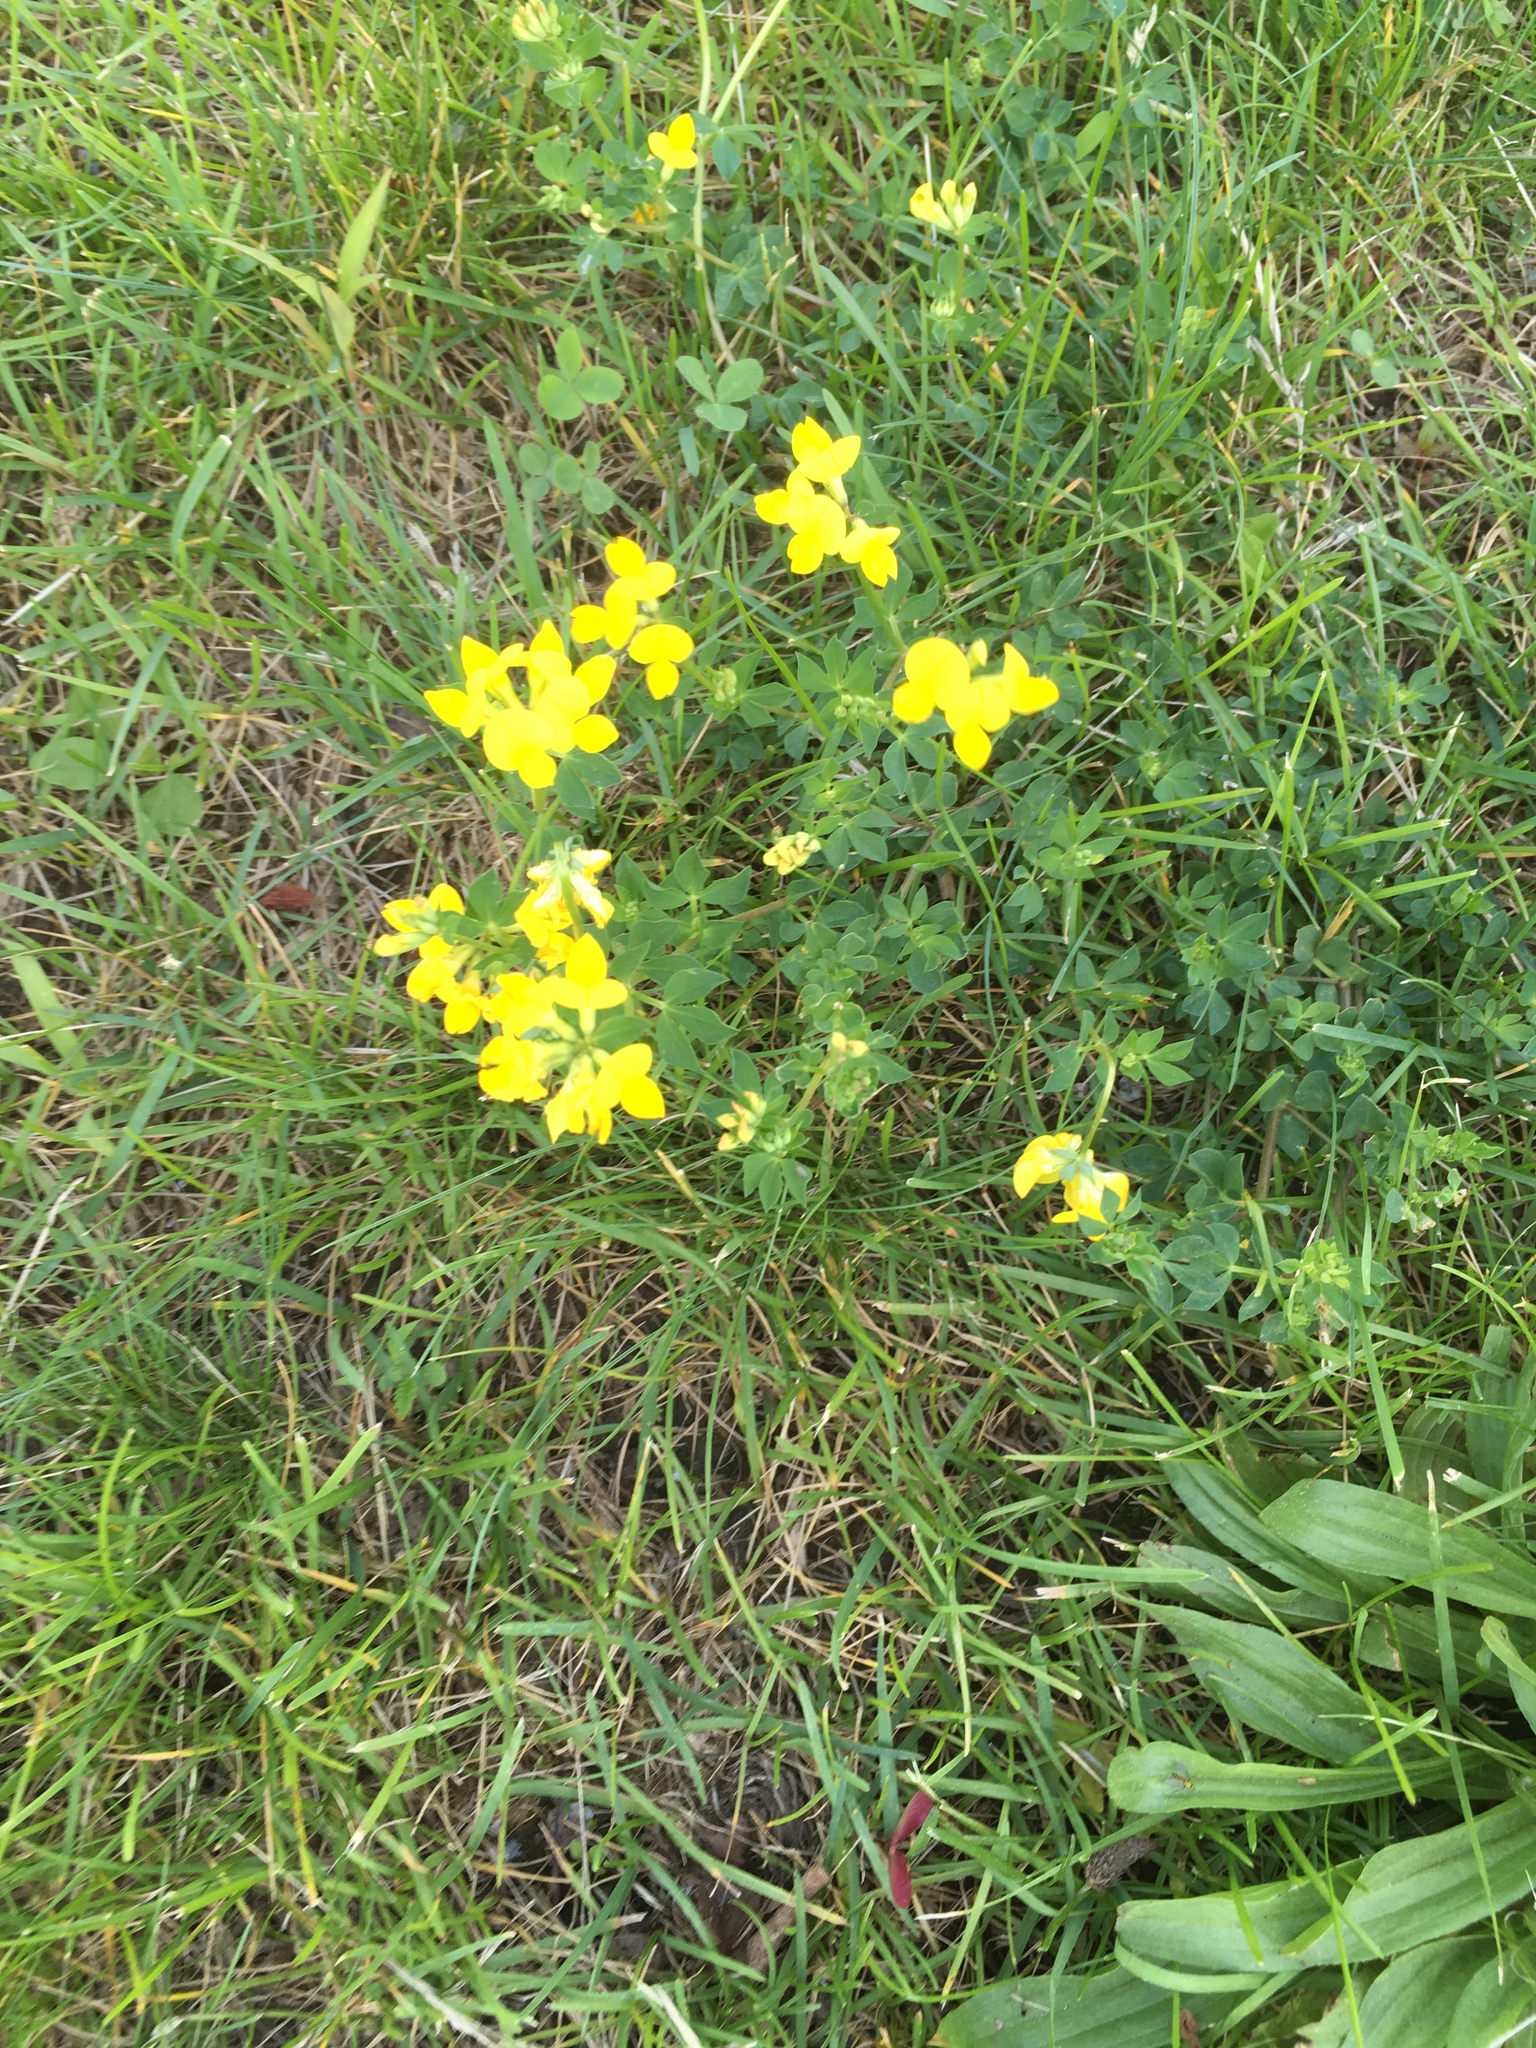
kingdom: Plantae
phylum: Tracheophyta
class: Magnoliopsida
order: Fabales
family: Fabaceae
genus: Lotus
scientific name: Lotus corniculatus
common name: Common bird's-foot-trefoil
